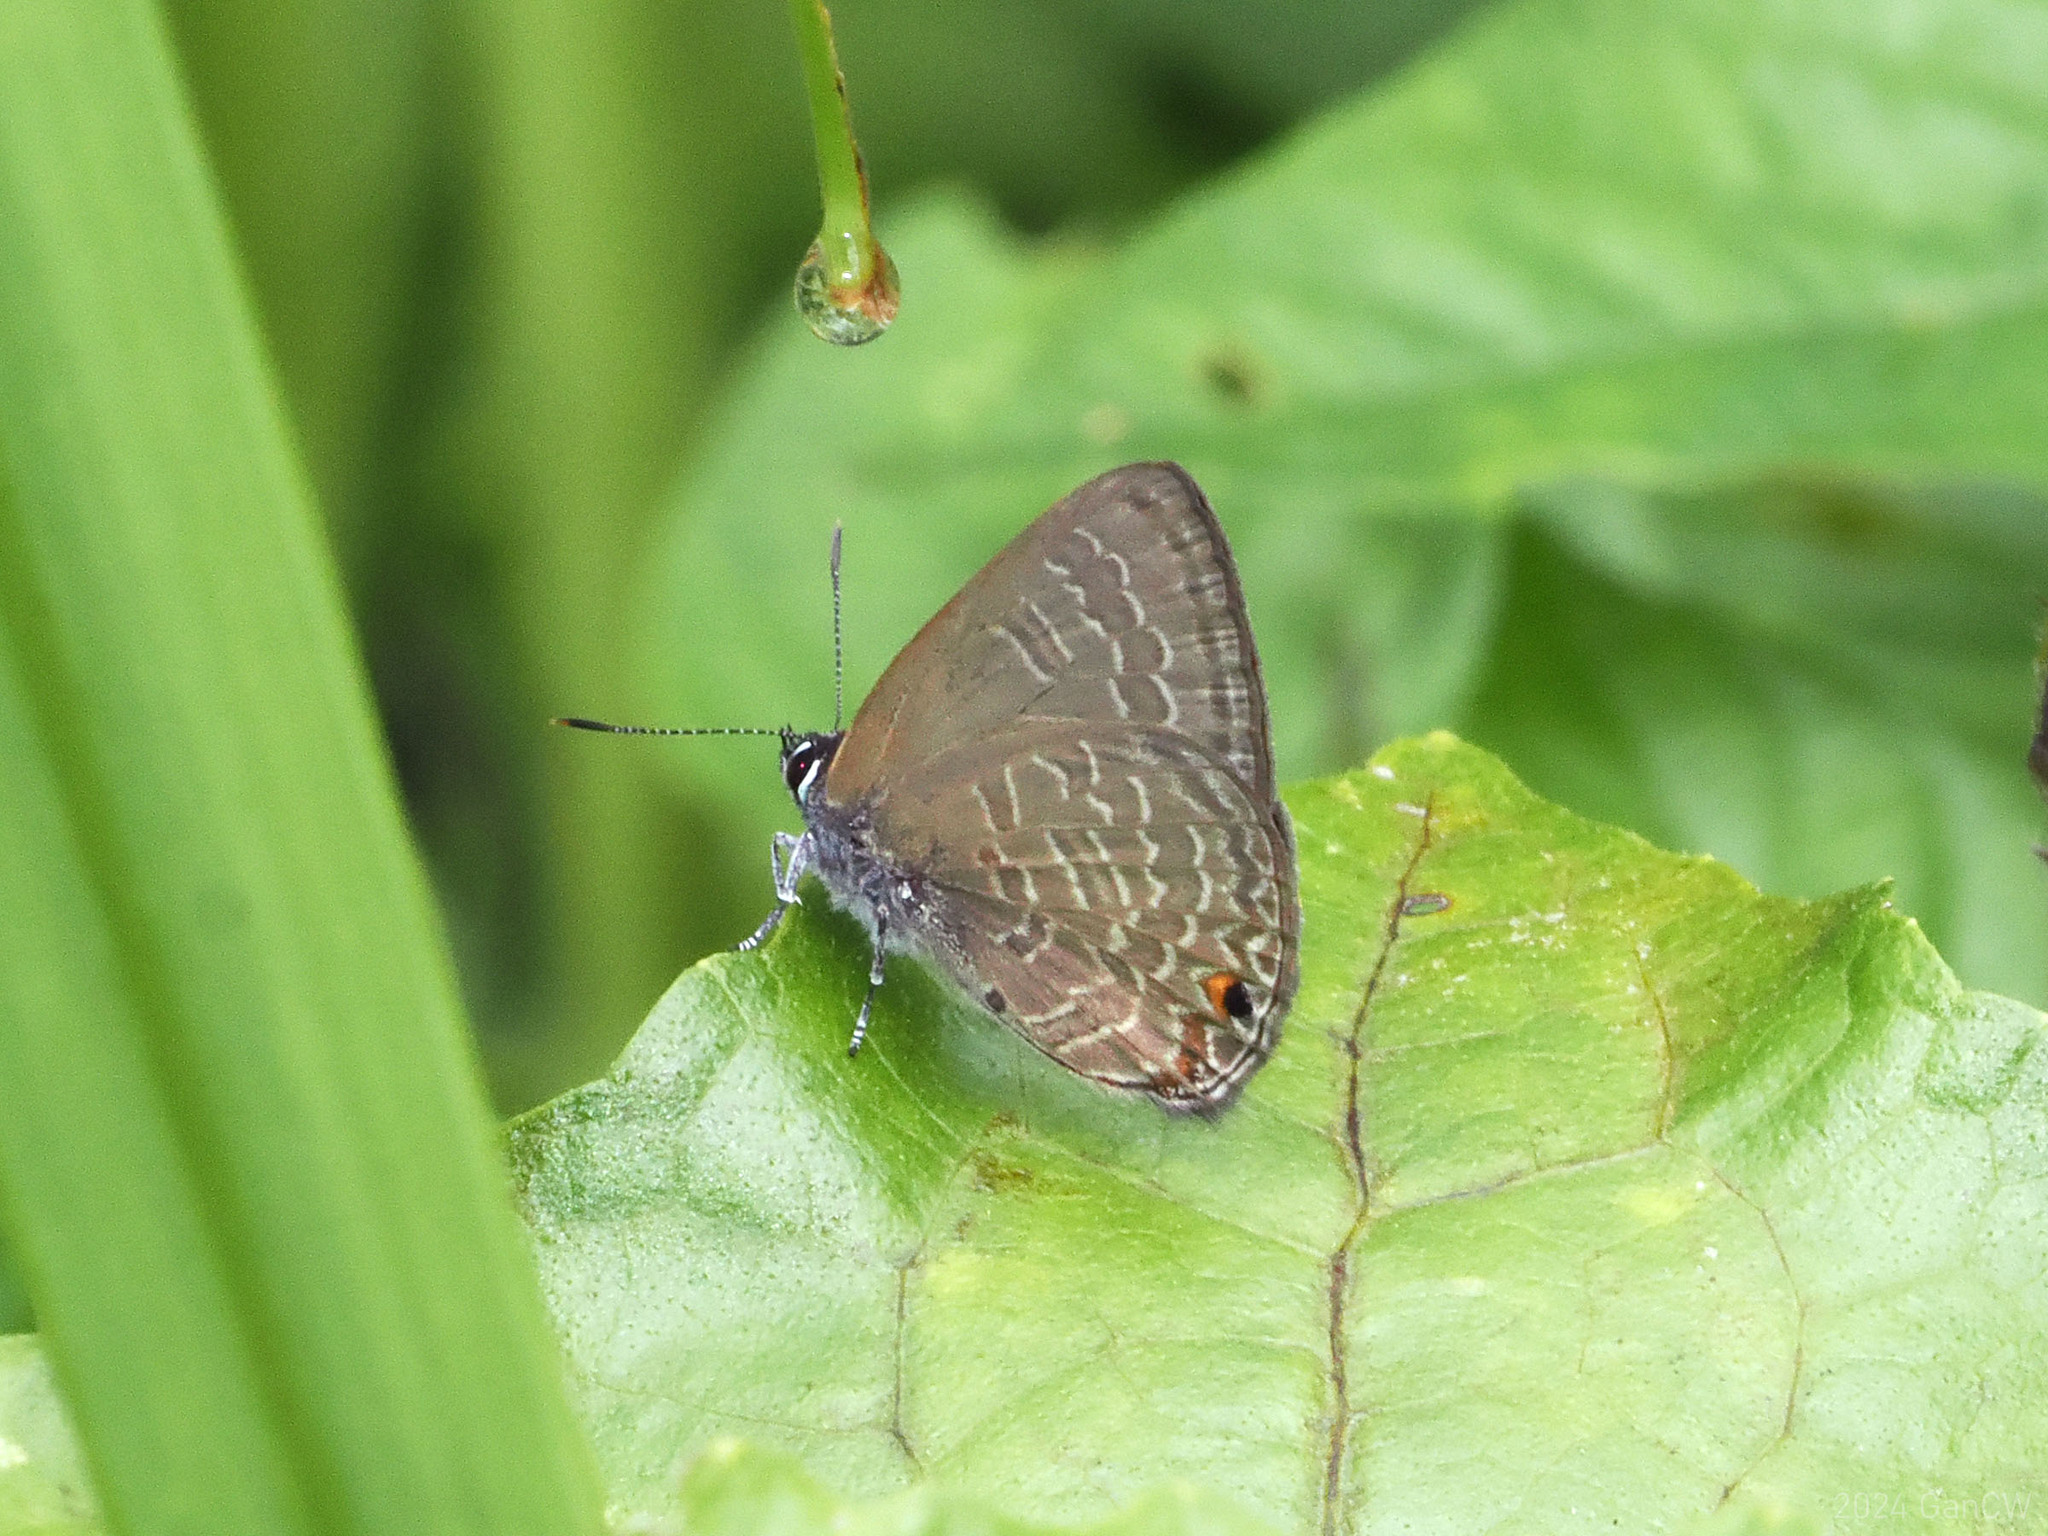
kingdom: Animalia
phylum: Arthropoda
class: Insecta
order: Lepidoptera
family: Lycaenidae
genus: Anthene
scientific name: Anthene emolus
